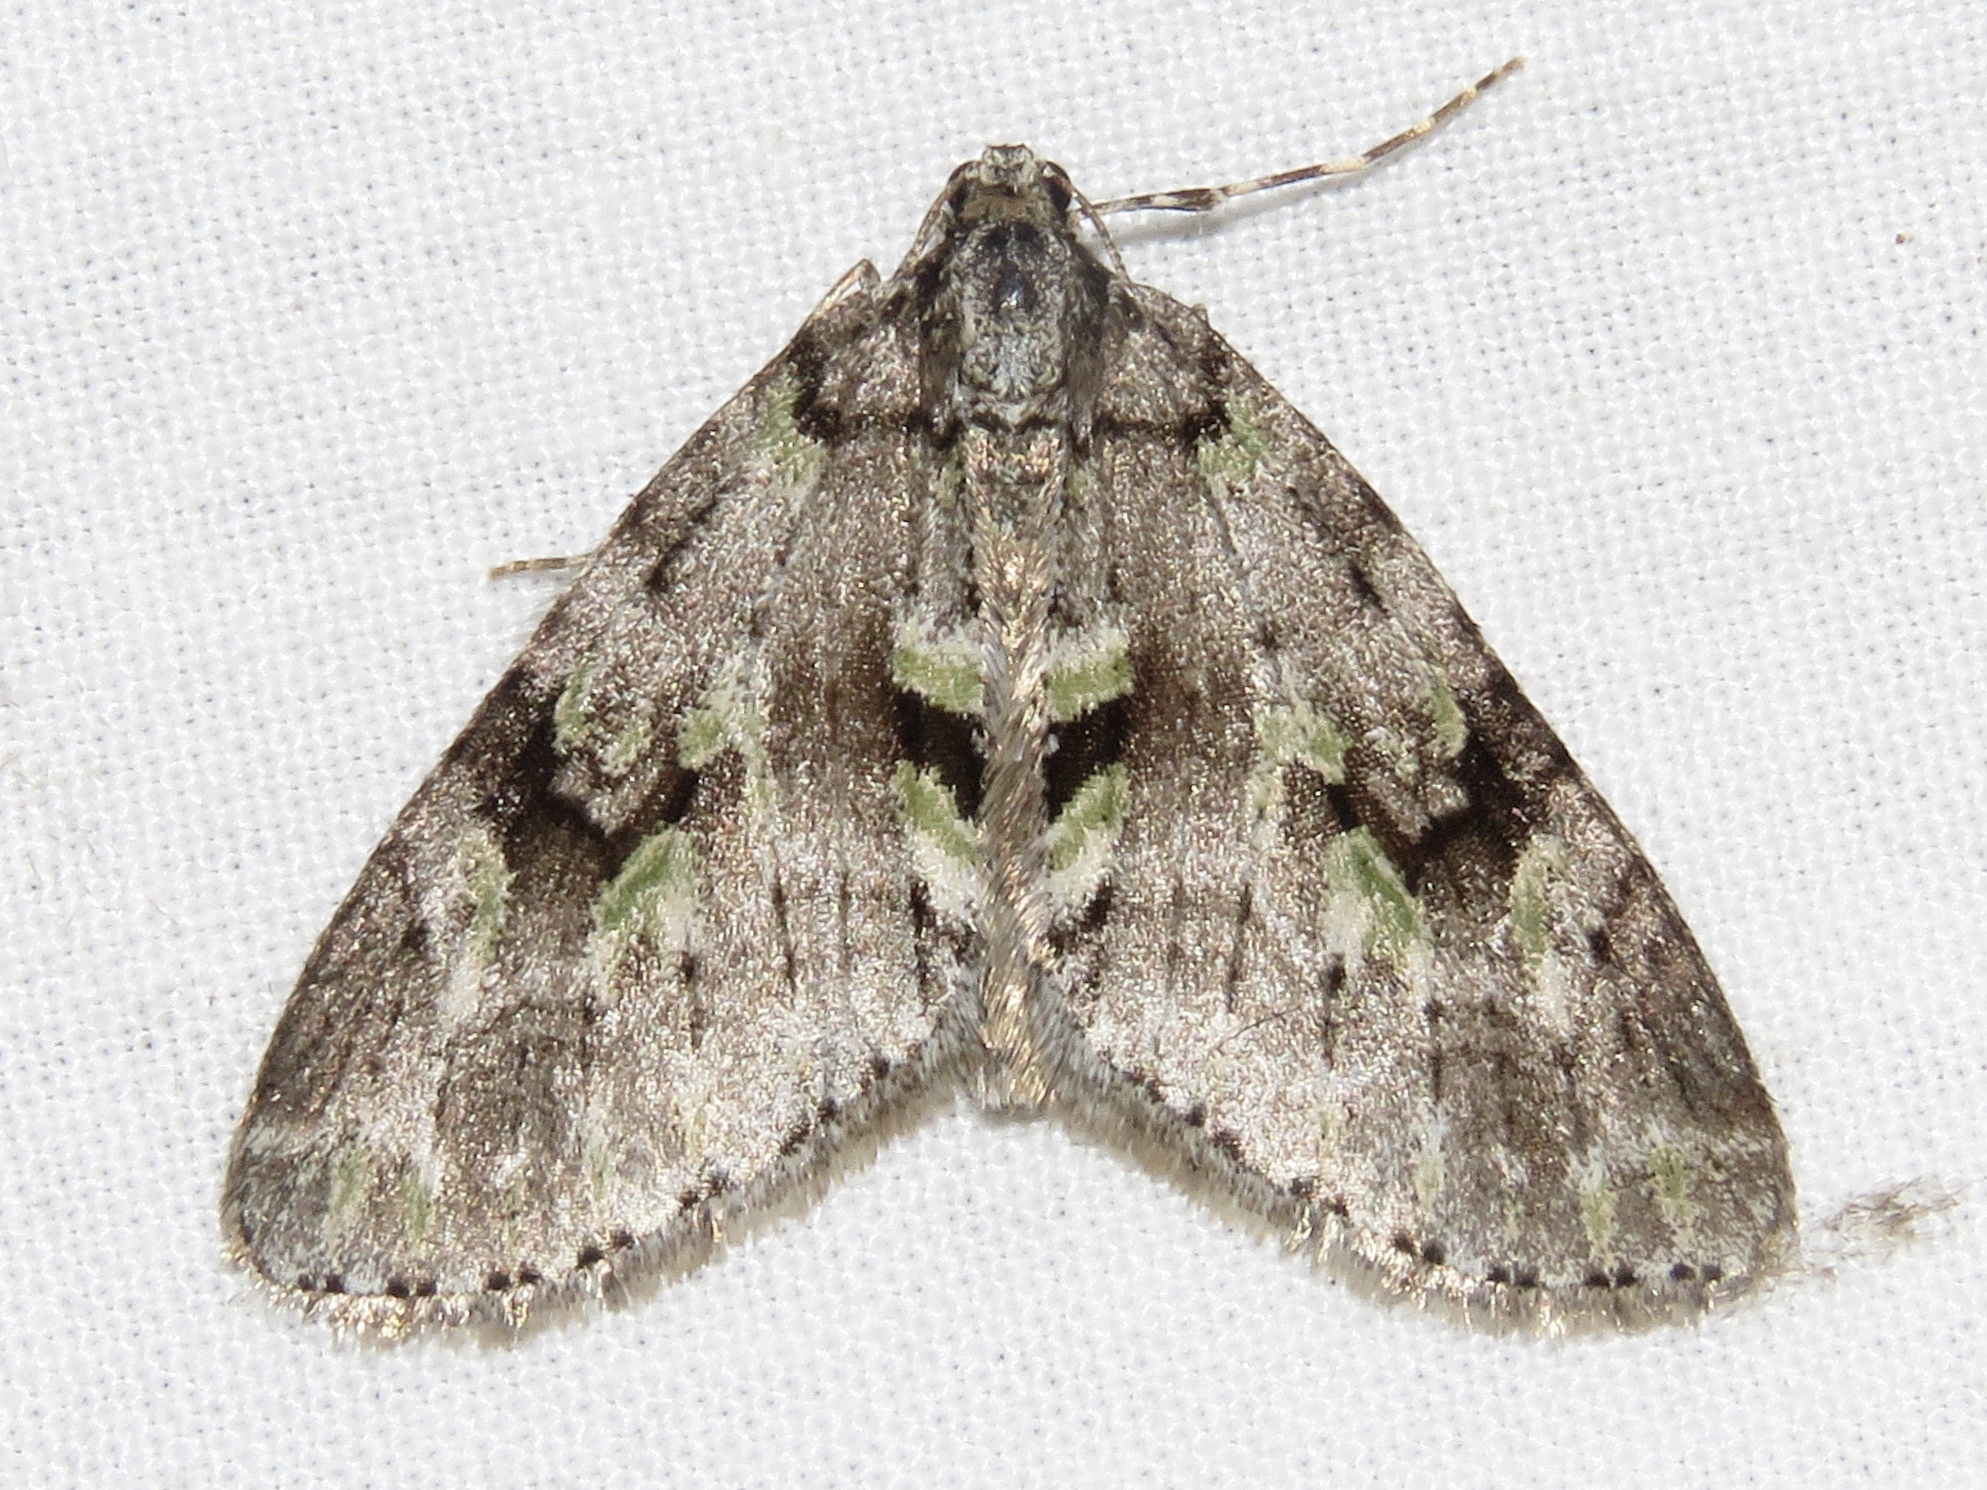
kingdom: Animalia
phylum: Arthropoda
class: Insecta
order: Lepidoptera
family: Geometridae
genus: Cladara
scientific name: Cladara limitaria
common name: Mottled gray carpet
